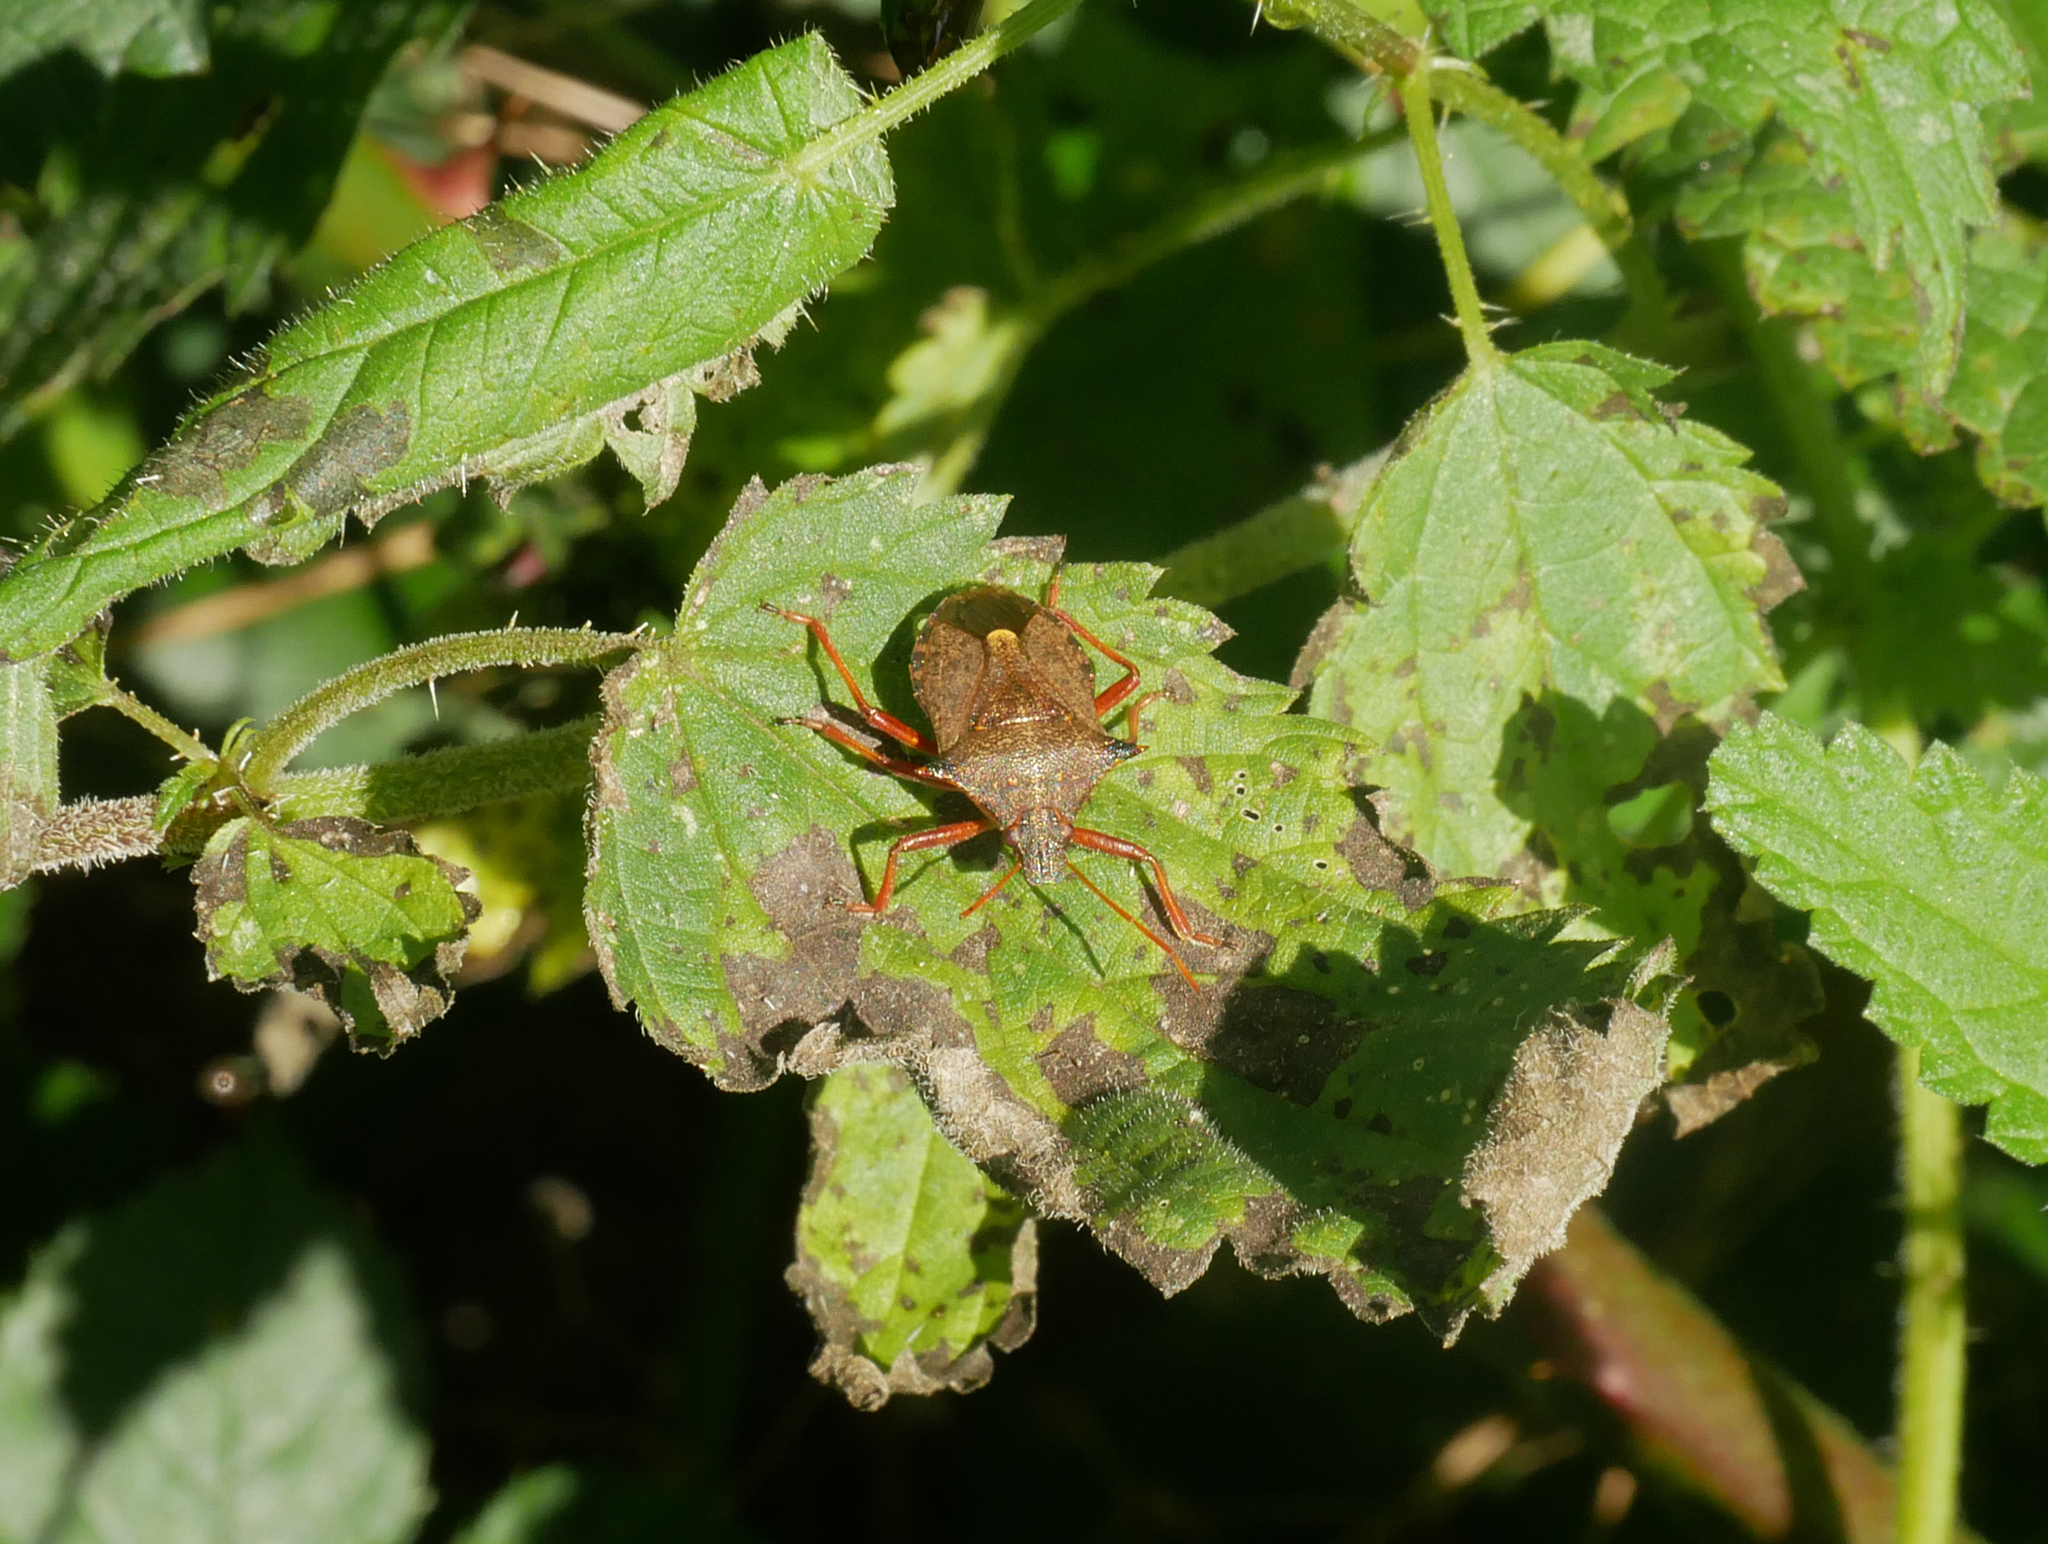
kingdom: Animalia
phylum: Arthropoda
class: Insecta
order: Hemiptera
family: Pentatomidae
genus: Picromerus
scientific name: Picromerus bidens
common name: Spiked shieldbug
